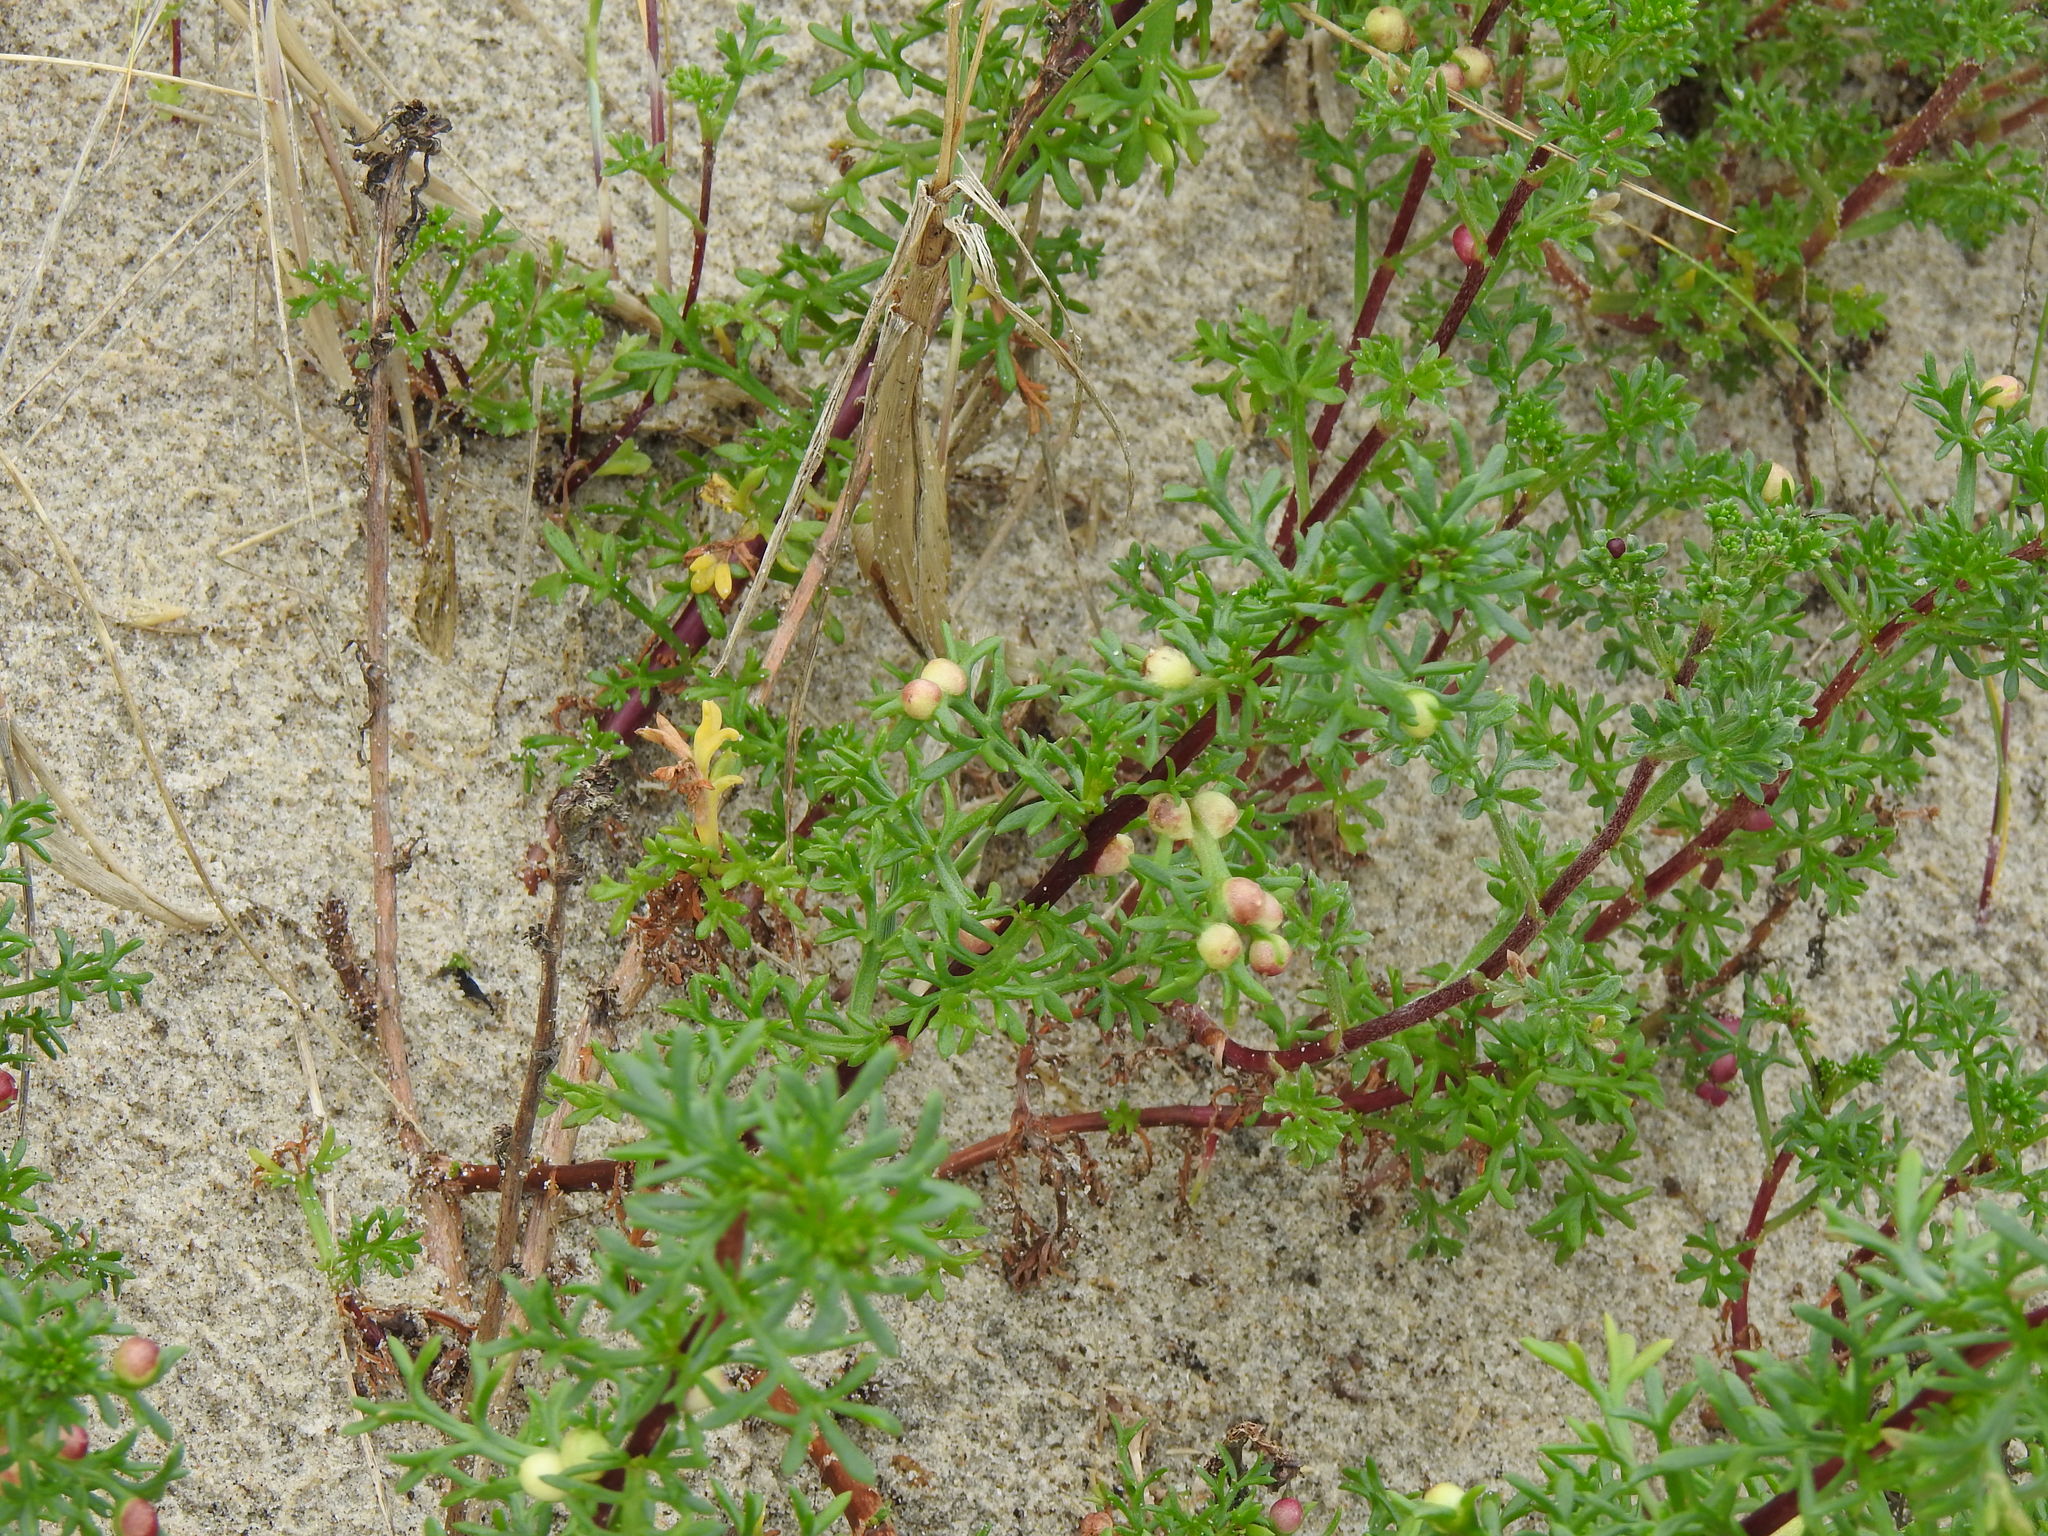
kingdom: Plantae
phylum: Tracheophyta
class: Magnoliopsida
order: Asterales
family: Asteraceae
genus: Artemisia
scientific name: Artemisia crithmifolia
